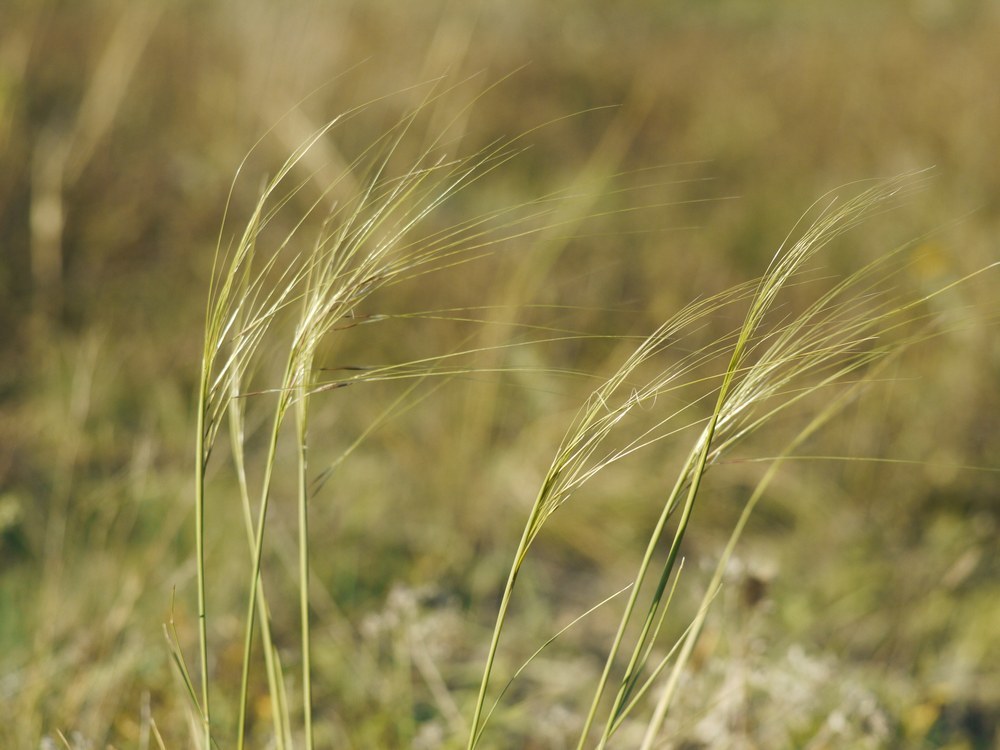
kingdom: Plantae
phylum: Tracheophyta
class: Liliopsida
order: Poales
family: Poaceae
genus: Stipa
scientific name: Stipa capillata
